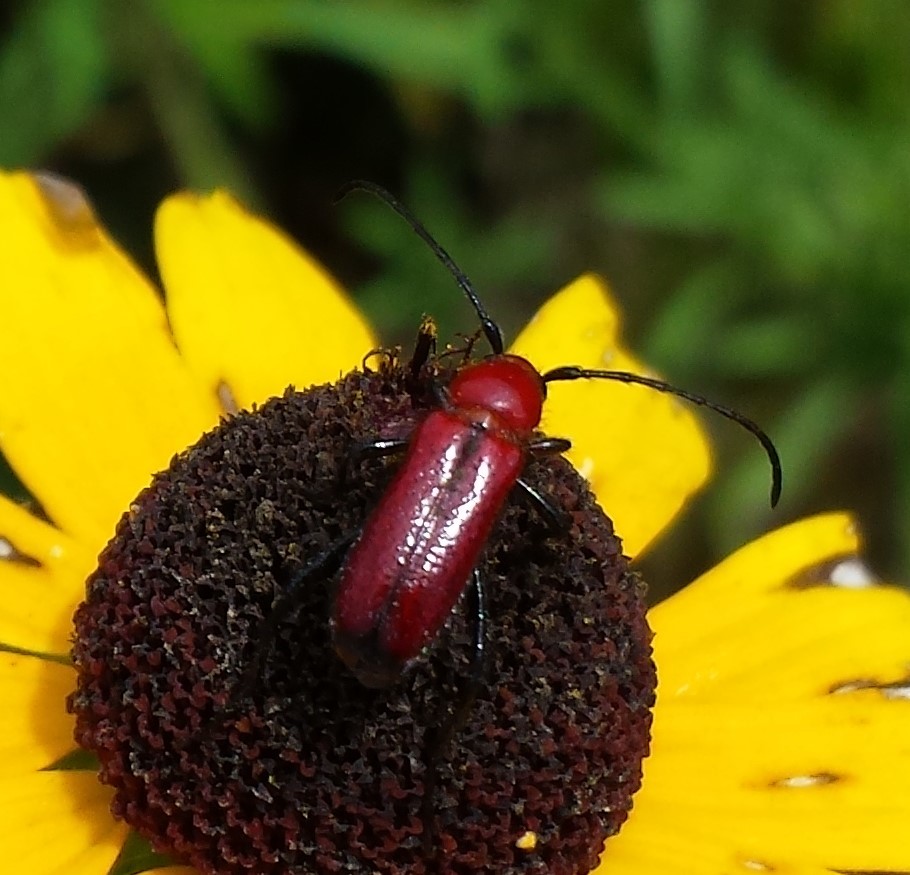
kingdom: Animalia
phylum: Arthropoda
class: Insecta
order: Coleoptera
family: Cerambycidae
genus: Batyle
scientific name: Batyle suturalis
